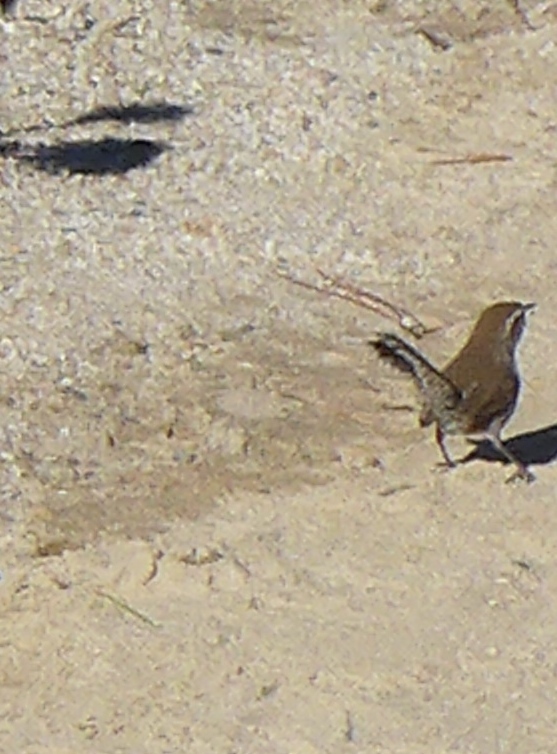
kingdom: Animalia
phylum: Chordata
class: Aves
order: Passeriformes
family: Troglodytidae
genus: Thryomanes
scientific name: Thryomanes bewickii
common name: Bewick's wren
